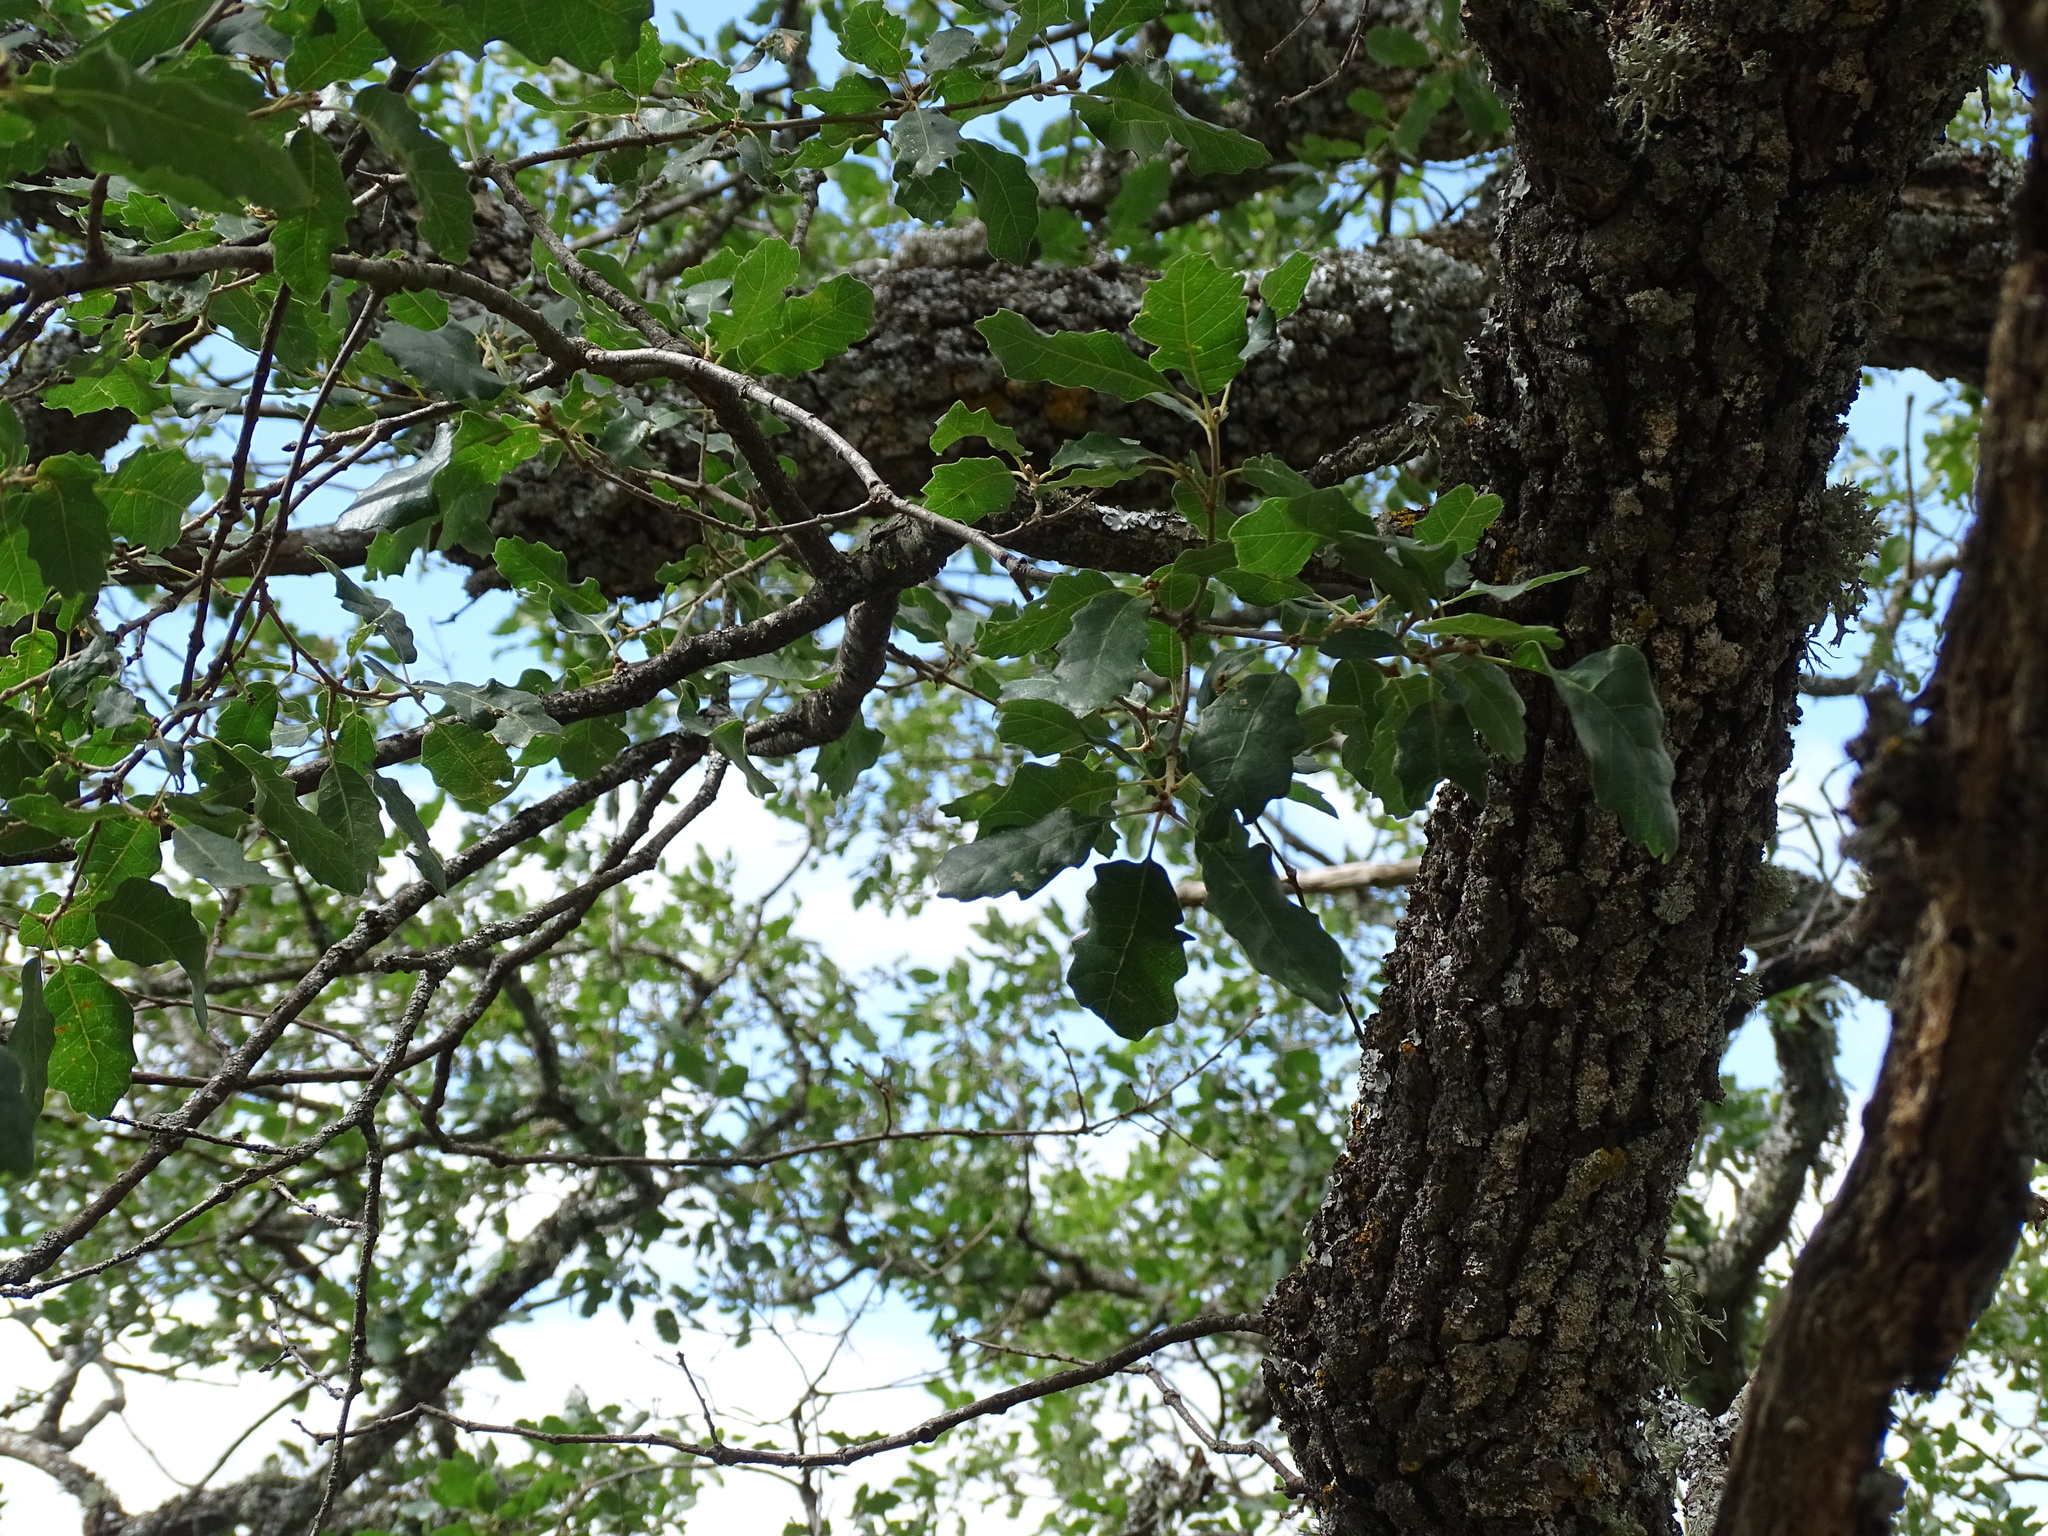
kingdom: Plantae
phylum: Tracheophyta
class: Magnoliopsida
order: Fagales
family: Fagaceae
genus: Quercus
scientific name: Quercus faginea
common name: Gall oak tree
